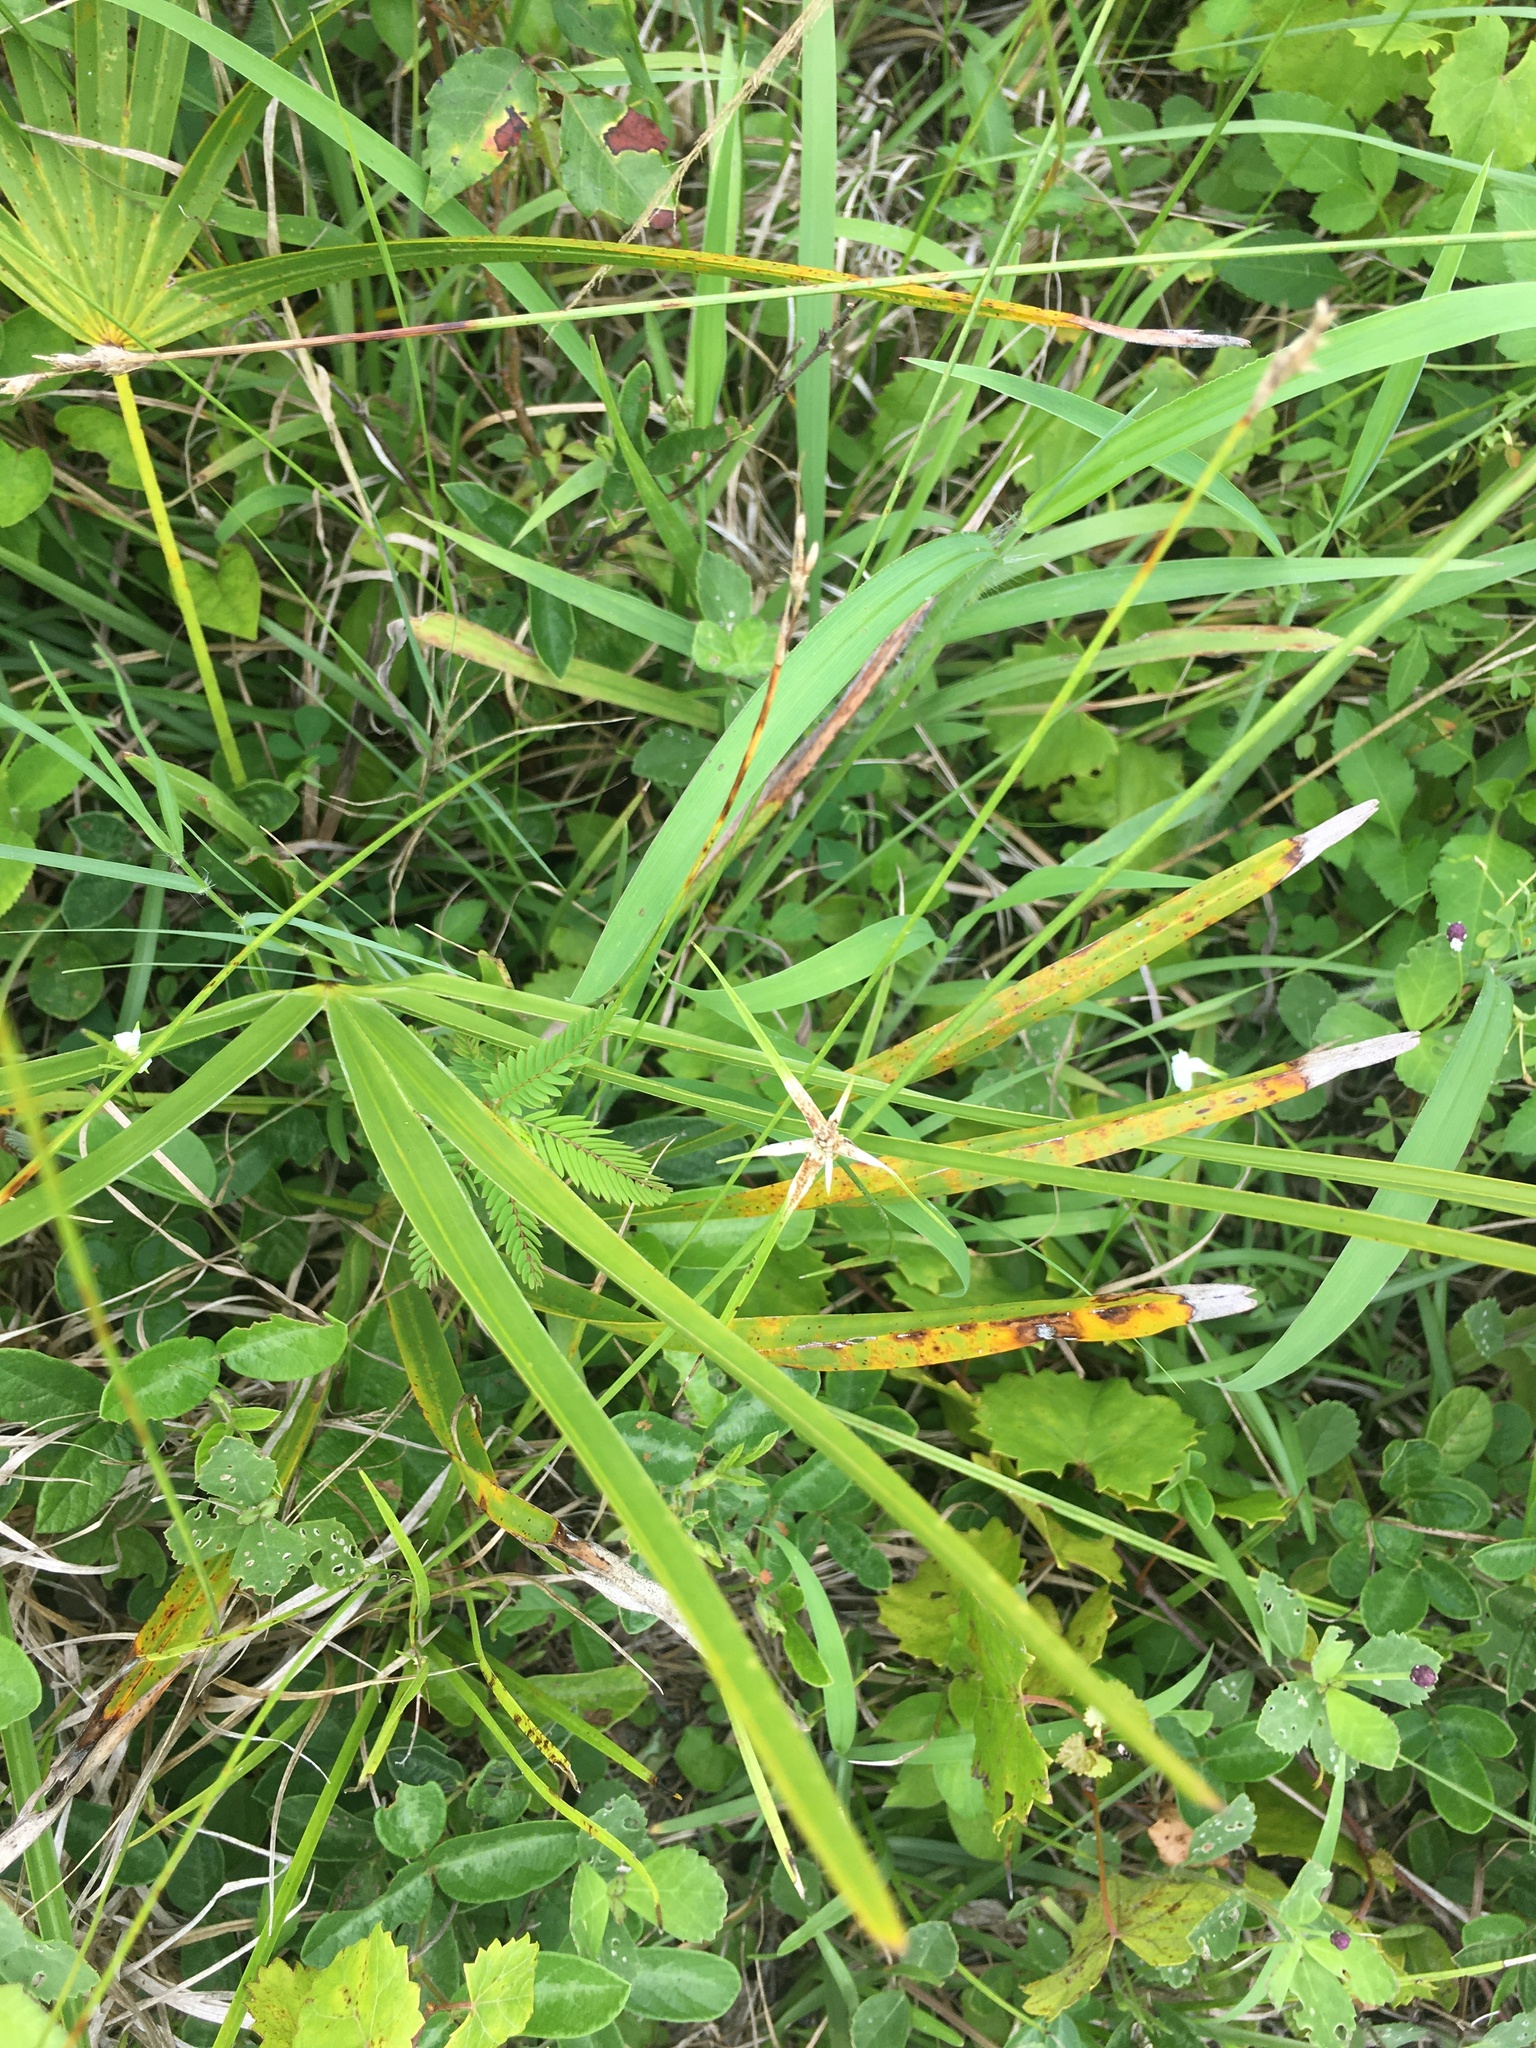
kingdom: Plantae
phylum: Tracheophyta
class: Liliopsida
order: Poales
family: Cyperaceae
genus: Rhynchospora
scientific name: Rhynchospora colorata
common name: Star sedge
